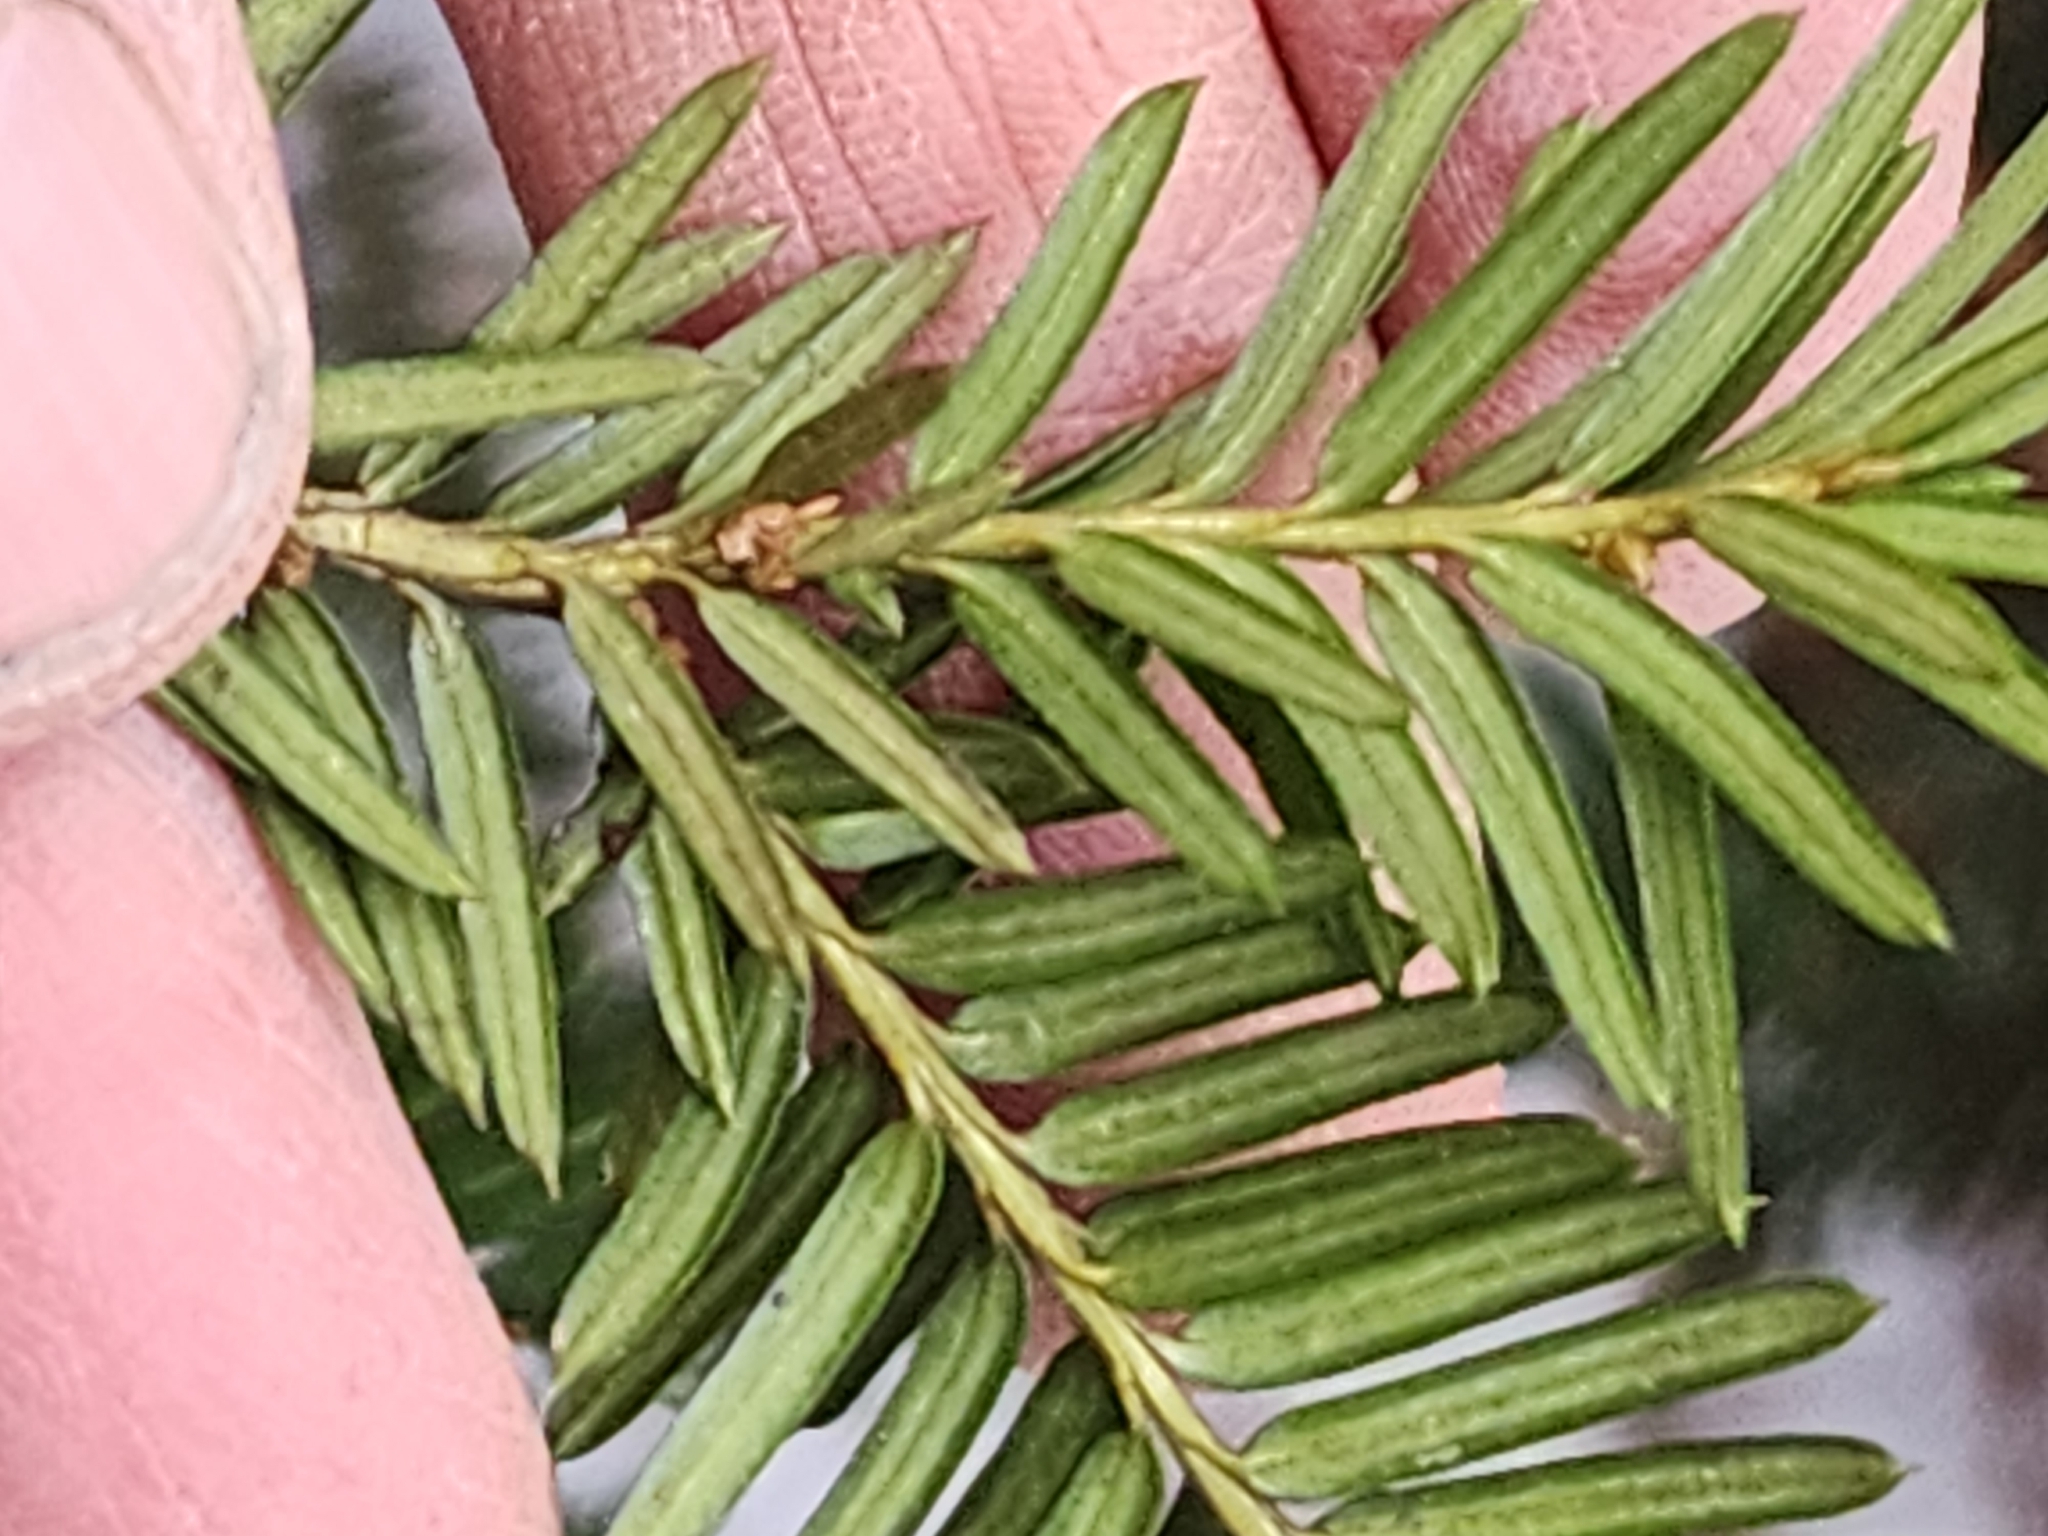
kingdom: Plantae
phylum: Tracheophyta
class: Pinopsida
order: Pinales
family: Taxaceae
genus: Taxus
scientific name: Taxus canadensis
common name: American yew
